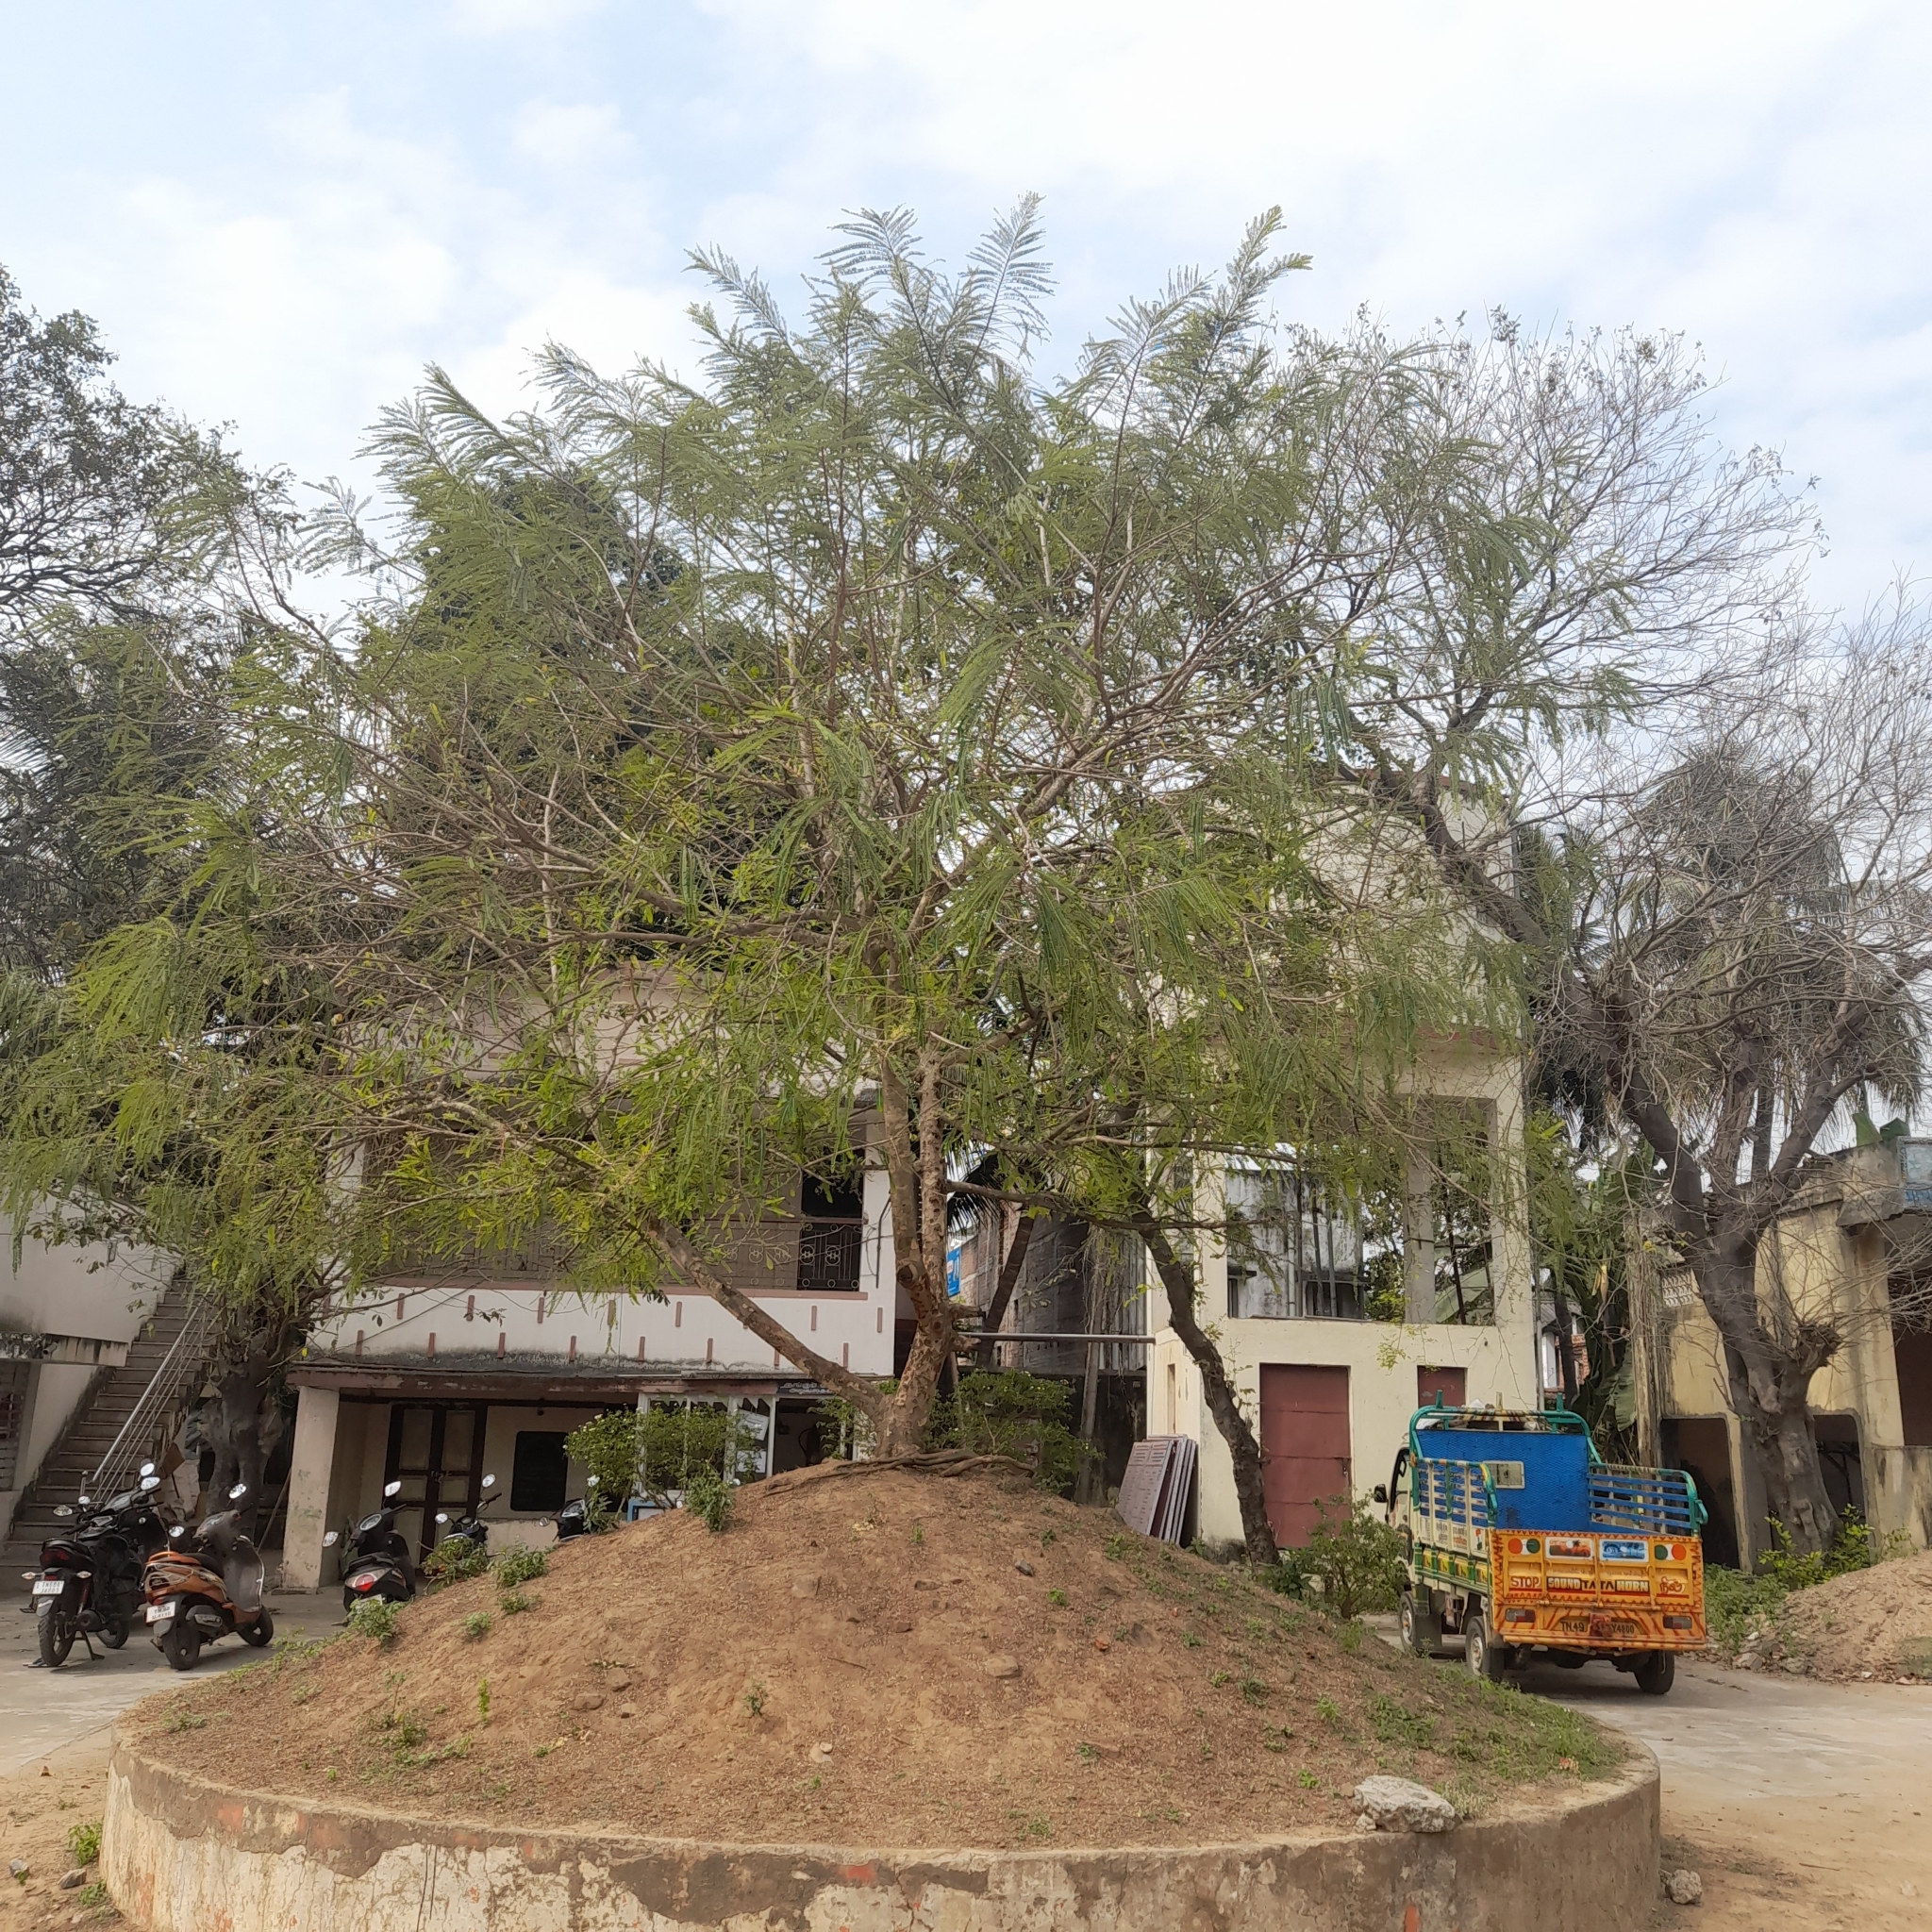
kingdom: Plantae
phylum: Tracheophyta
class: Magnoliopsida
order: Malpighiales
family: Phyllanthaceae
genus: Phyllanthus
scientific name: Phyllanthus emblica
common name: Indian gooseberry
